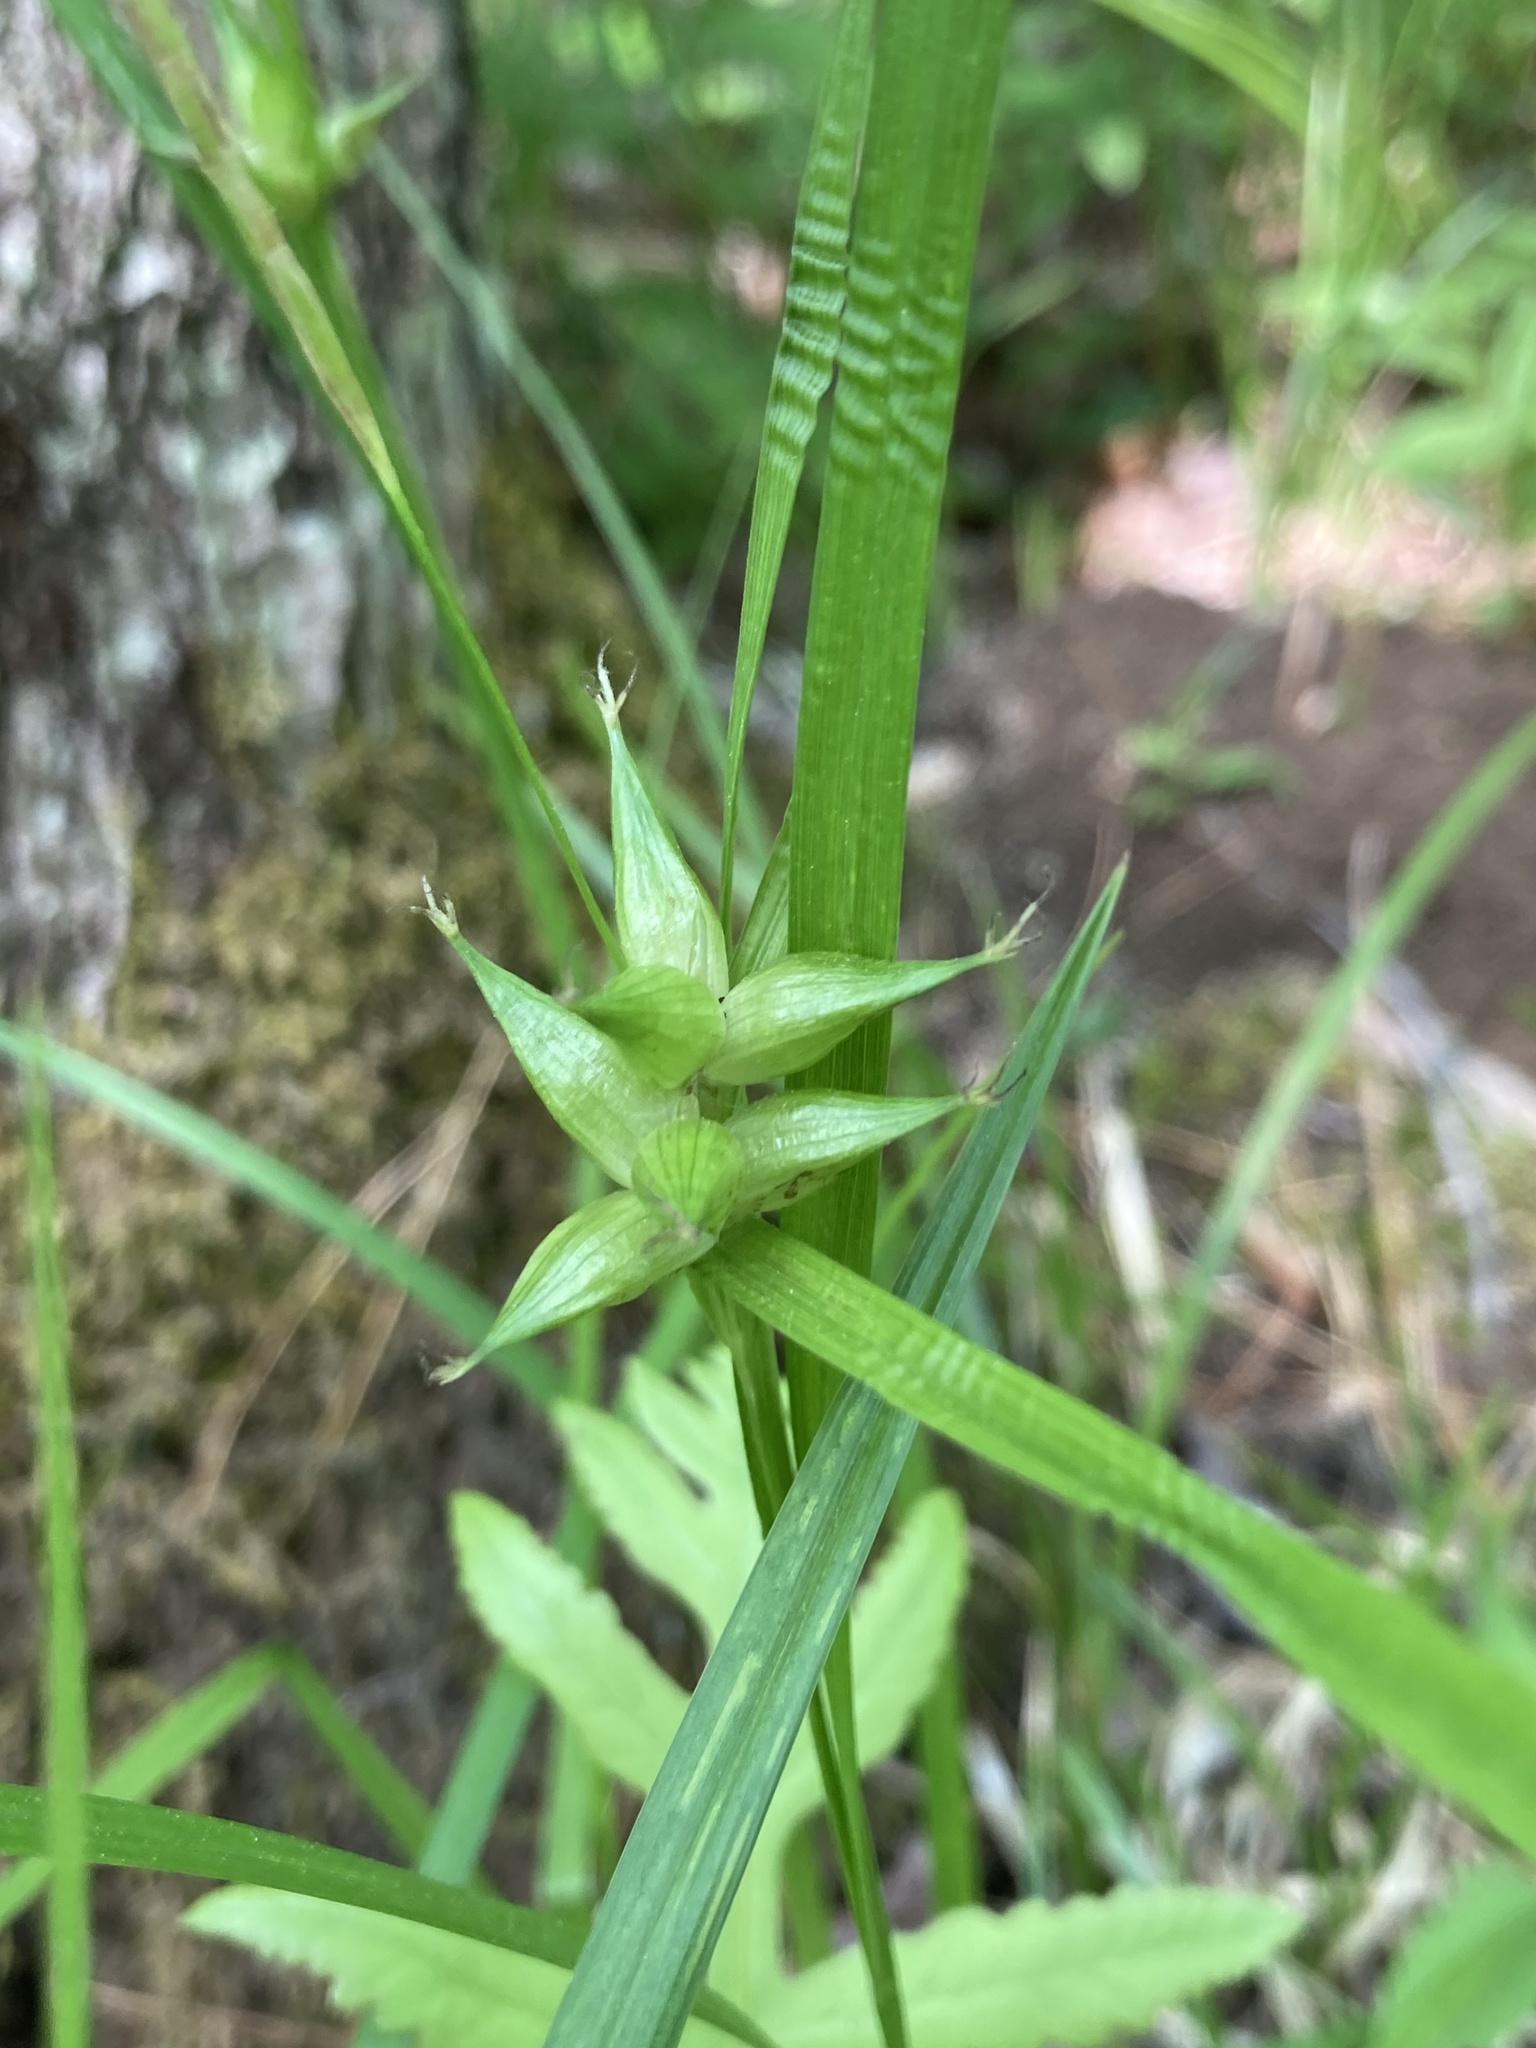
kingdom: Plantae
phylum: Tracheophyta
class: Liliopsida
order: Poales
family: Cyperaceae
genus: Carex
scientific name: Carex intumescens
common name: Greater bladder sedge
